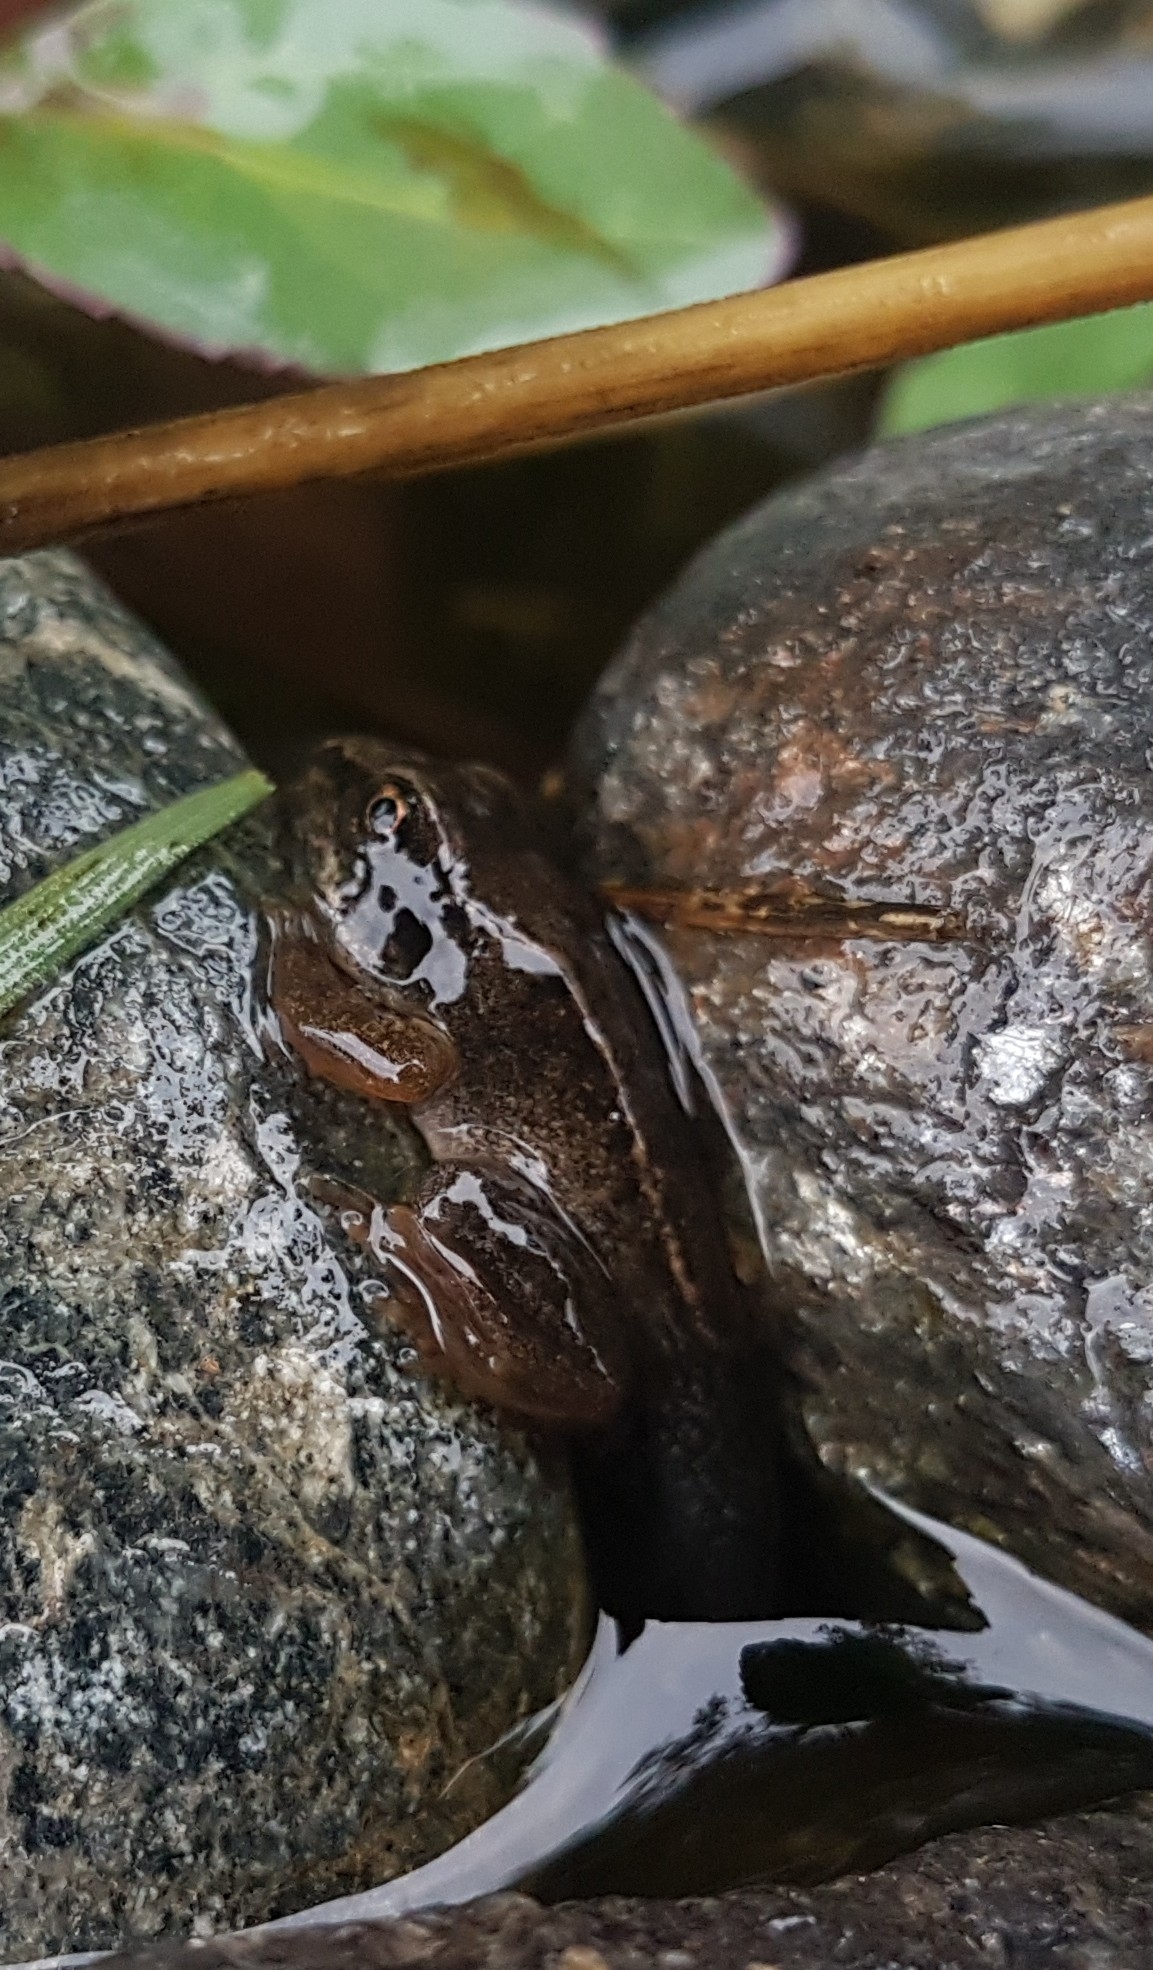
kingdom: Animalia
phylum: Chordata
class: Amphibia
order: Anura
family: Ranidae
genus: Rana
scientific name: Rana temporaria
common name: Common frog
